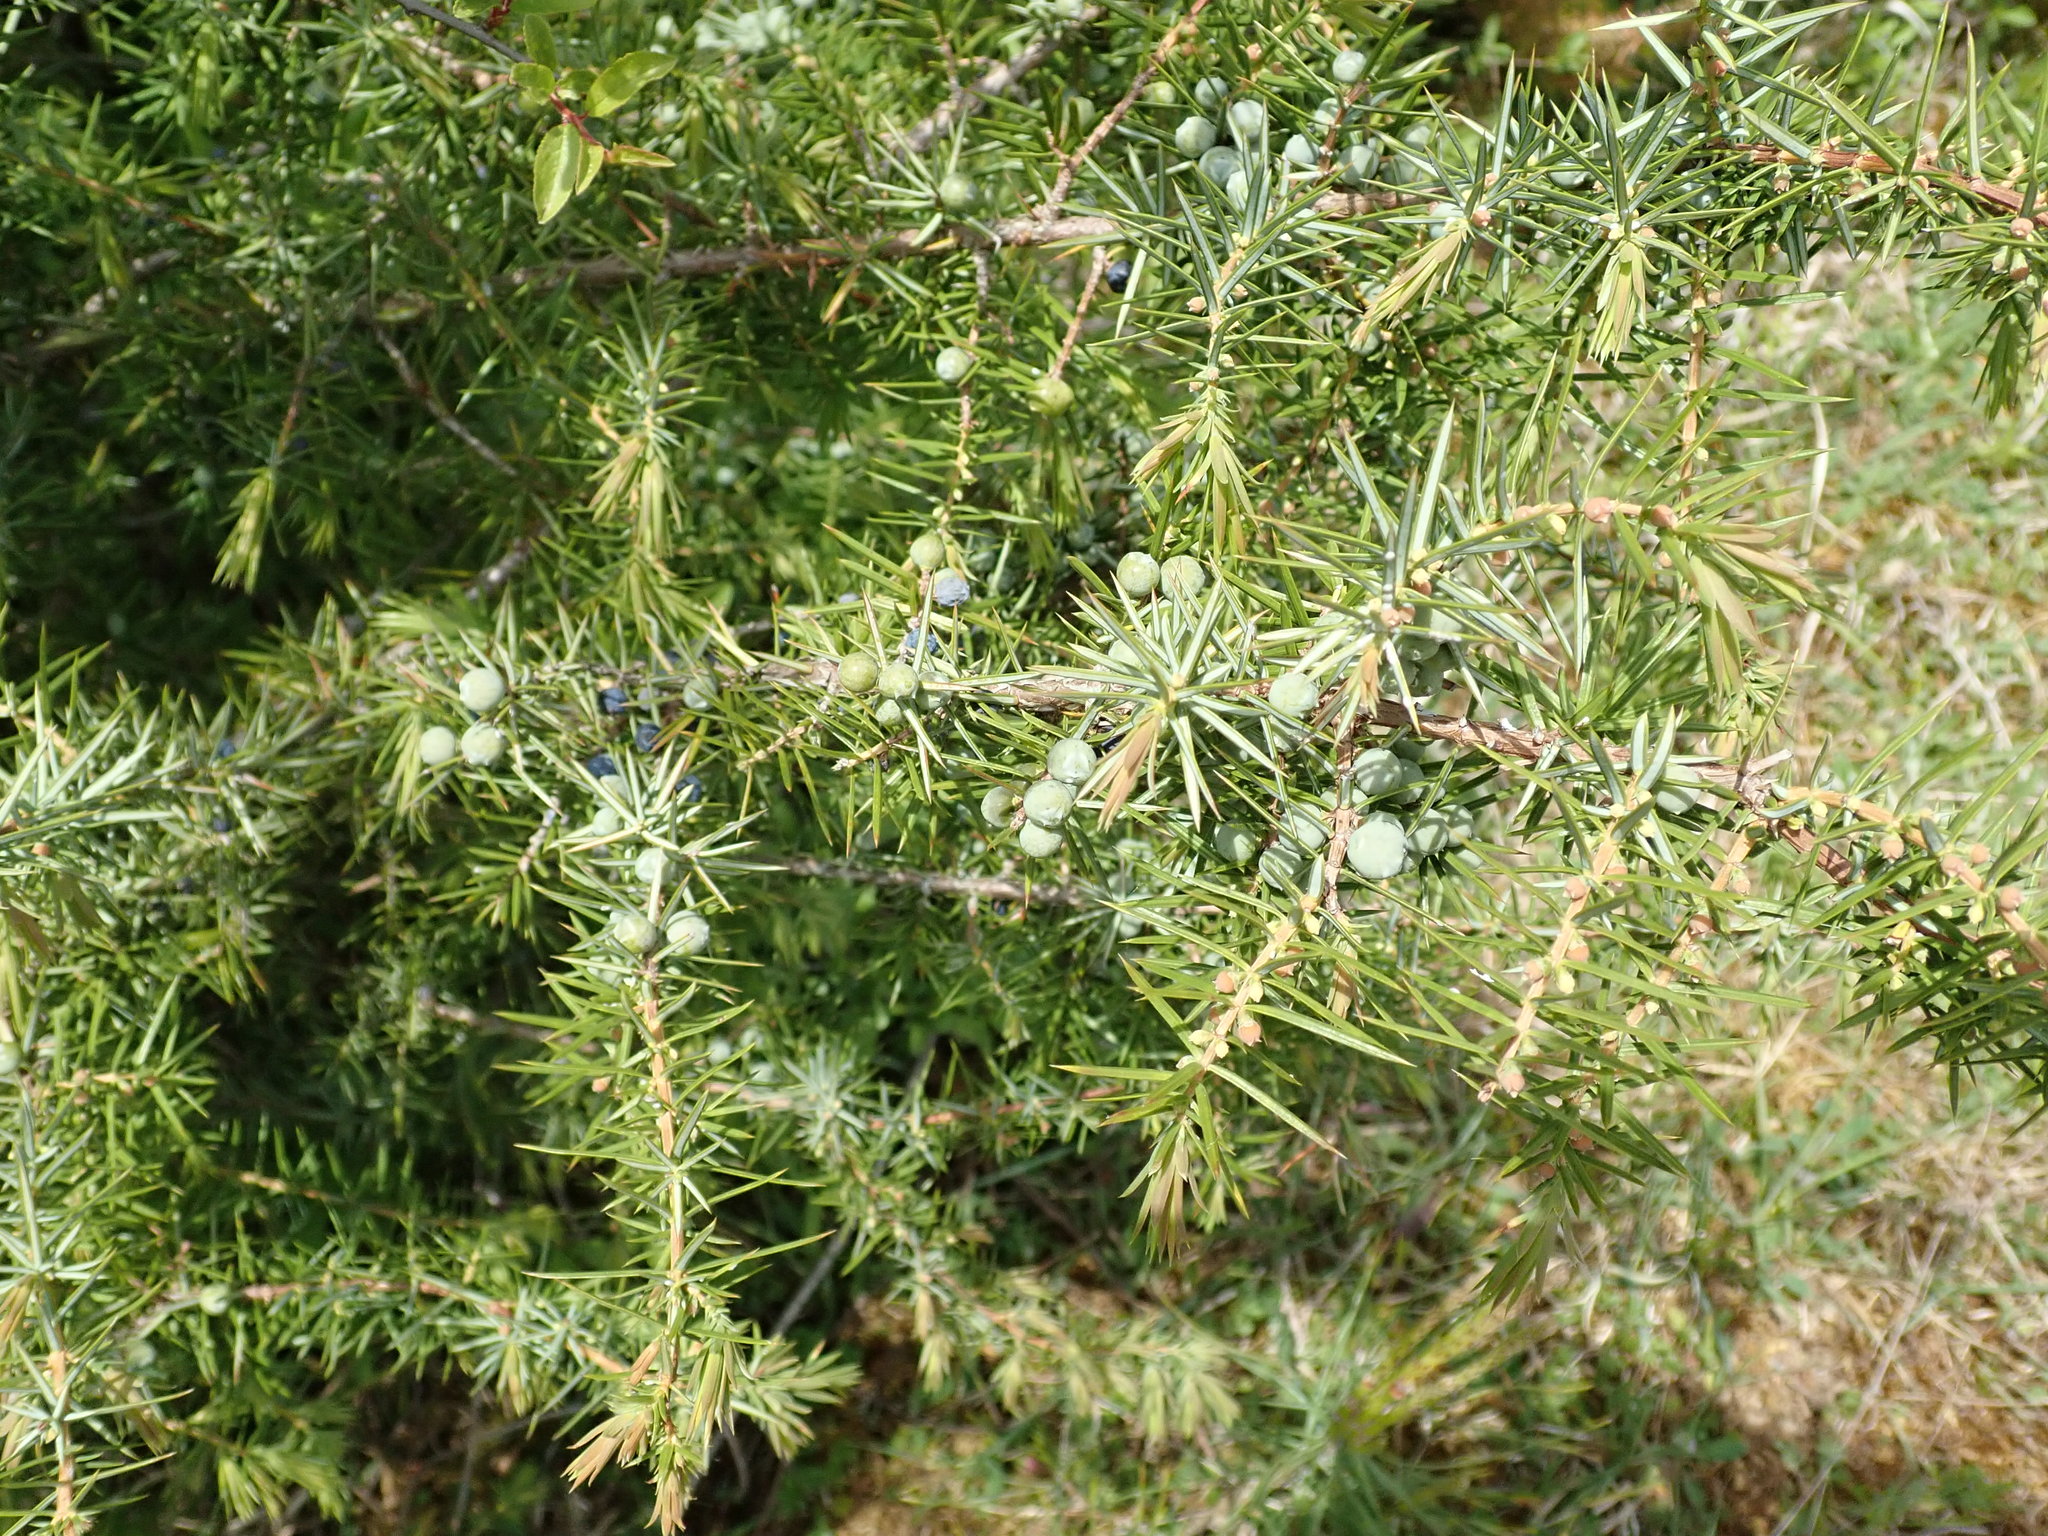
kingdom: Plantae
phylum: Tracheophyta
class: Pinopsida
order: Pinales
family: Cupressaceae
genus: Juniperus
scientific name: Juniperus communis
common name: Common juniper
